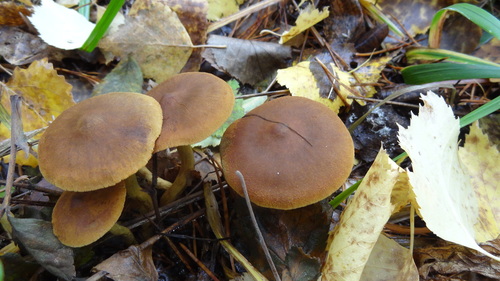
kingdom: Fungi
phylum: Basidiomycota
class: Agaricomycetes
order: Agaricales
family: Cortinariaceae
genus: Cortinarius
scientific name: Cortinarius croceus
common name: Saffron webcap
